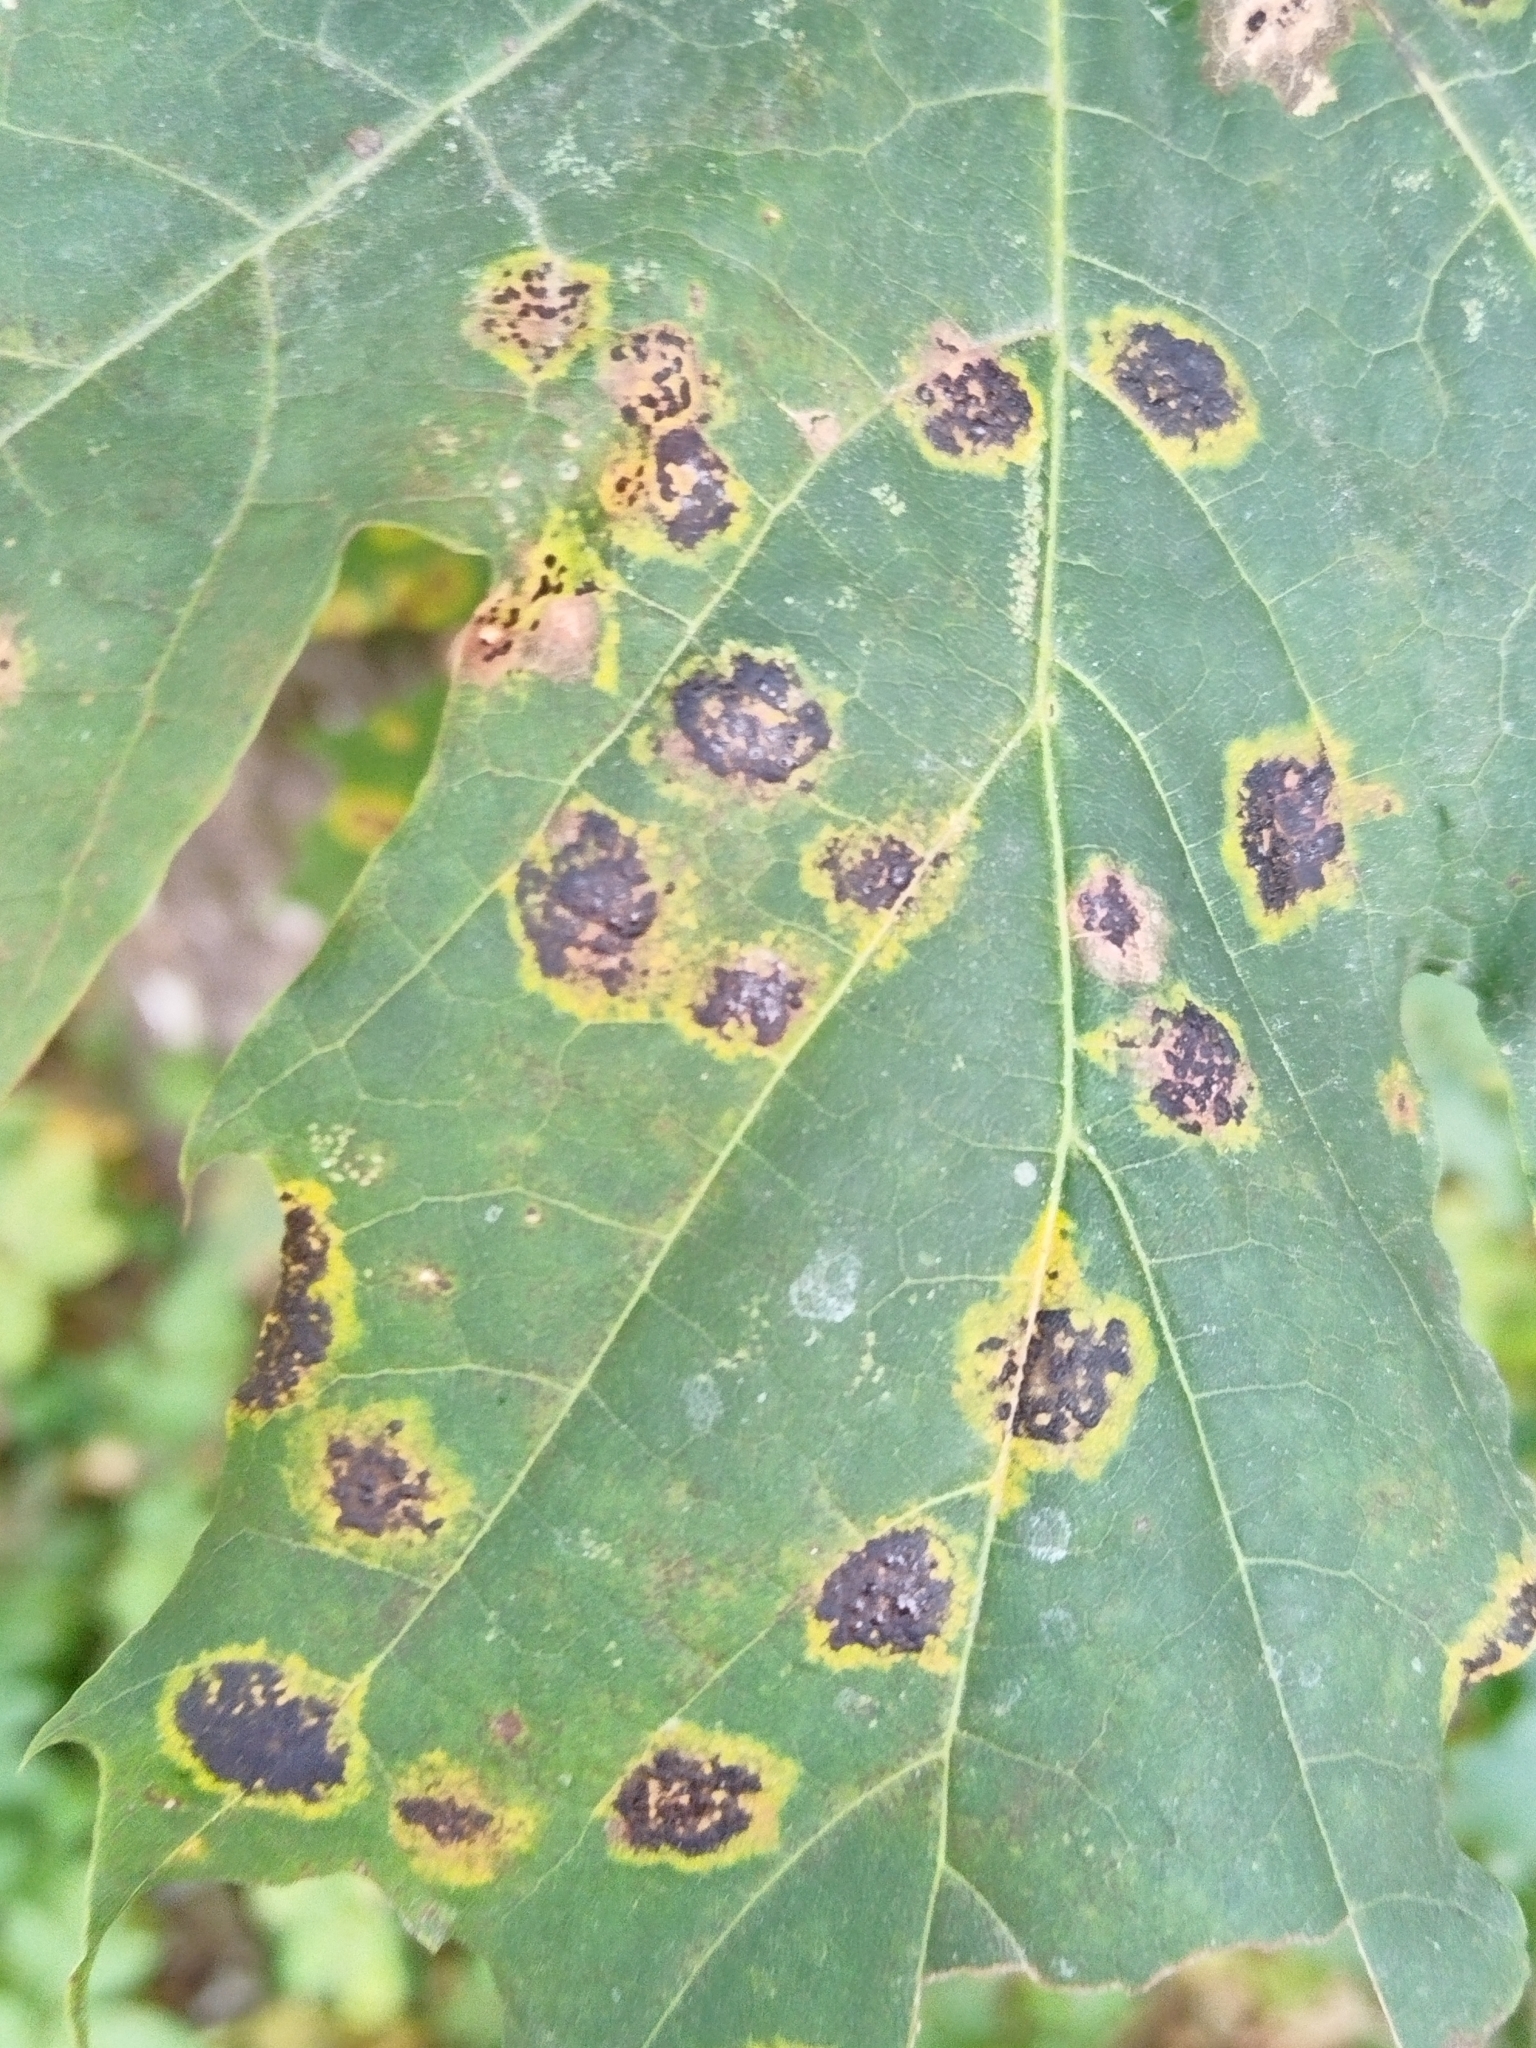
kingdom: Fungi
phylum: Ascomycota
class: Leotiomycetes
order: Rhytismatales
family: Rhytismataceae
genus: Rhytisma
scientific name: Rhytisma acerinum
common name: European tar spot
